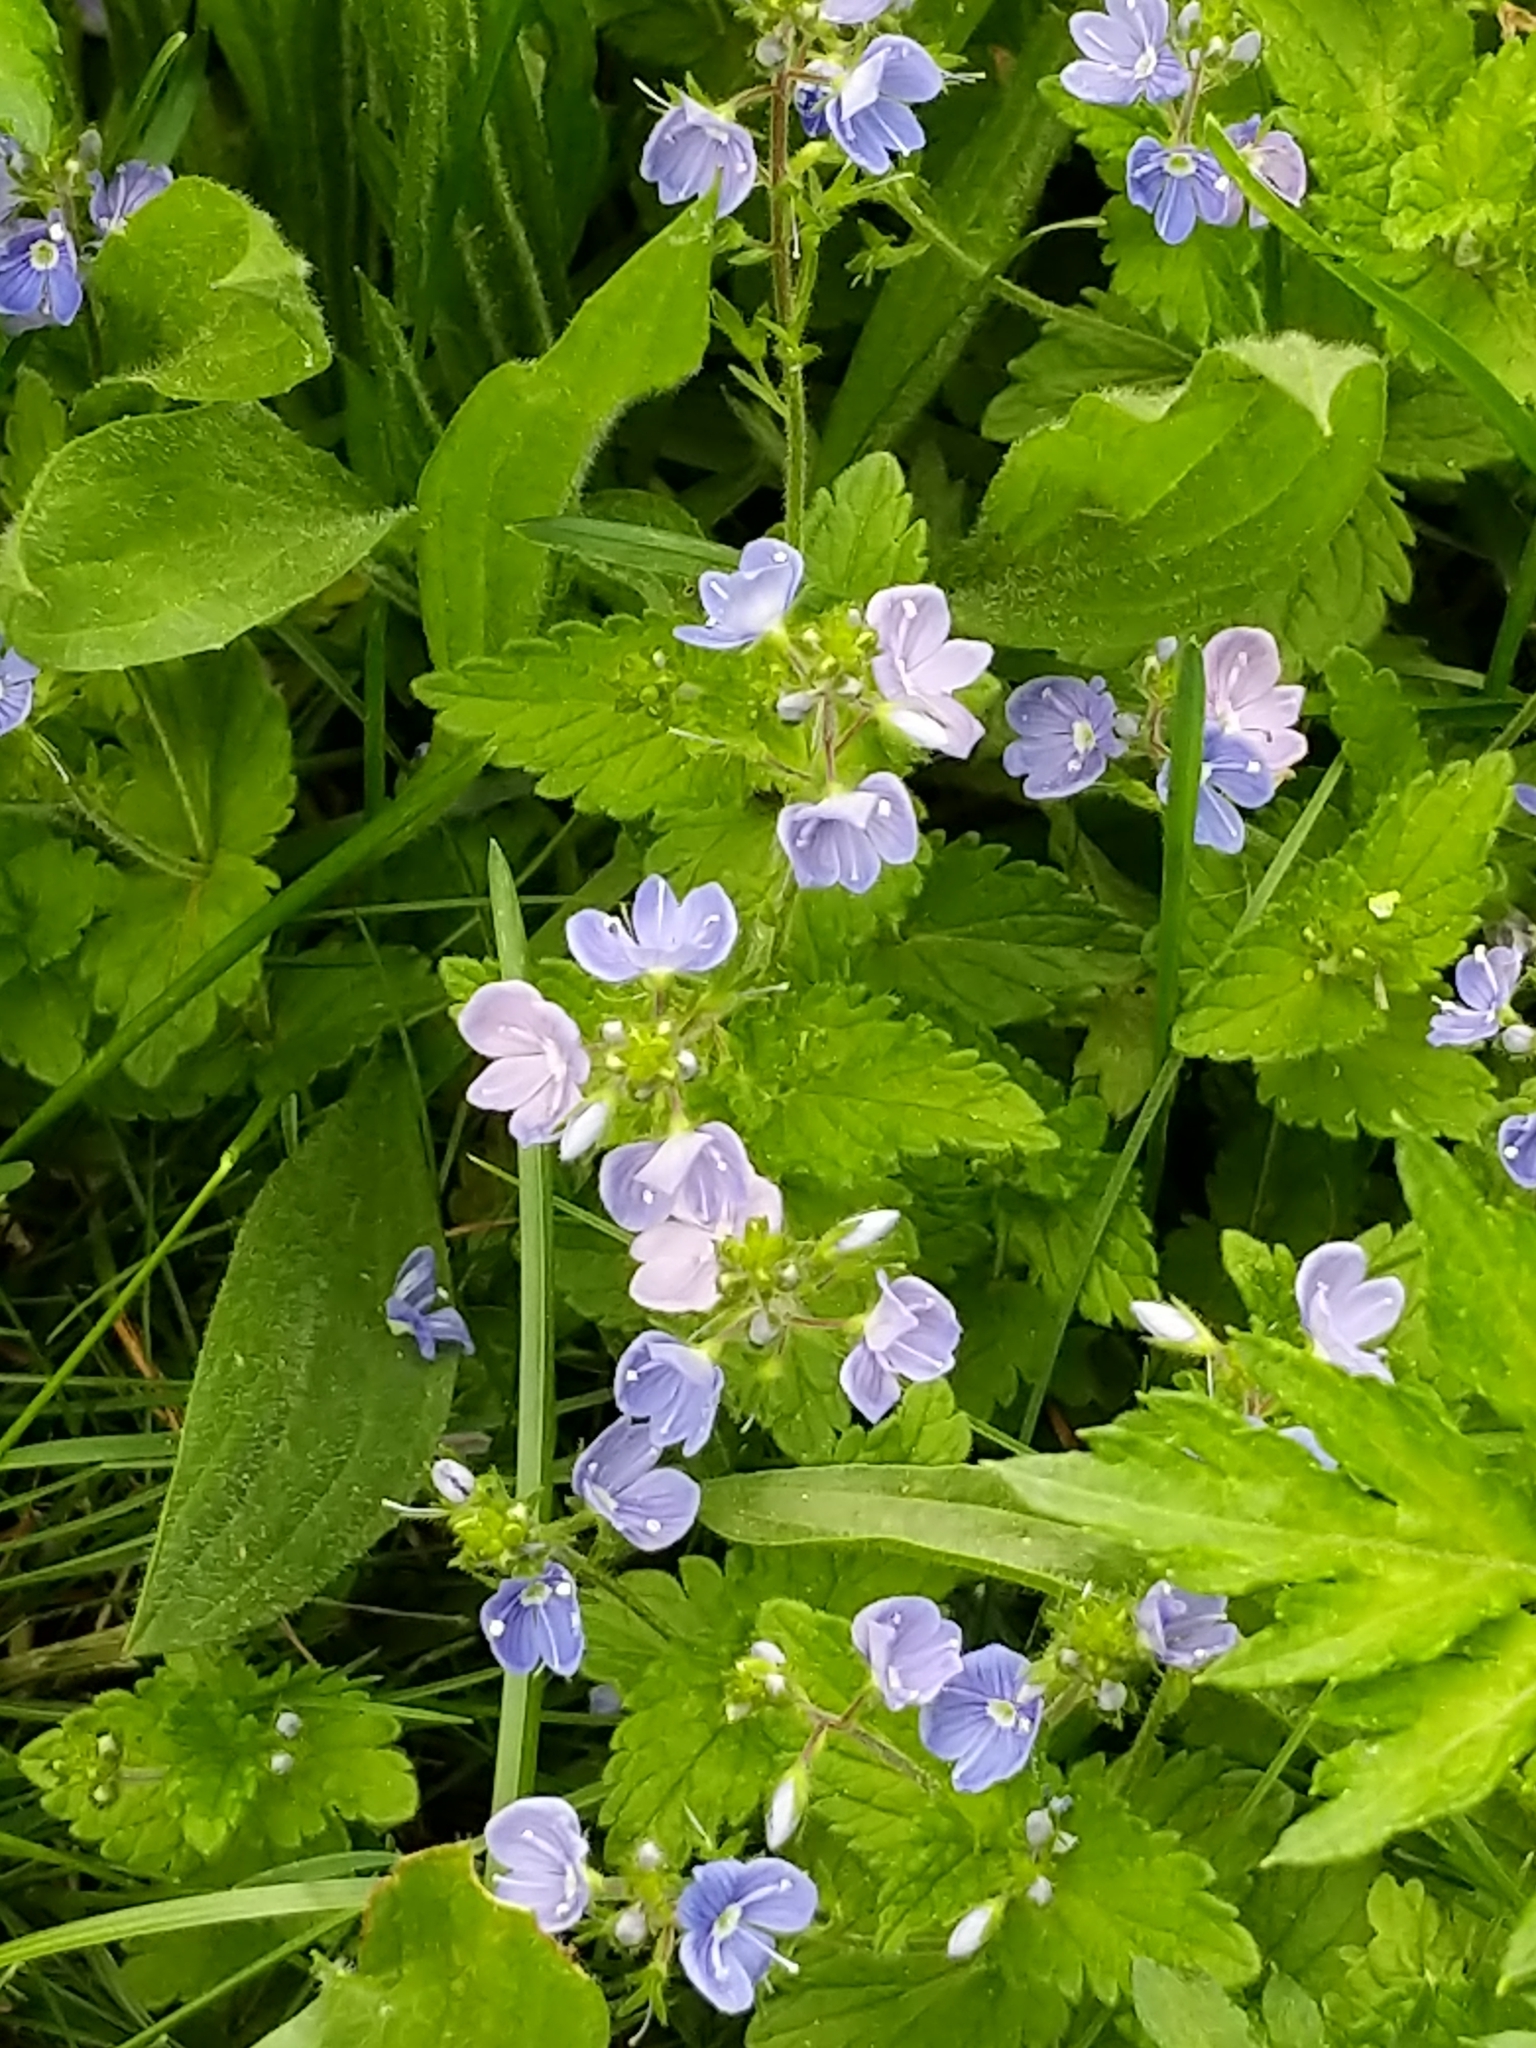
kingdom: Plantae
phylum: Tracheophyta
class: Magnoliopsida
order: Lamiales
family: Plantaginaceae
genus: Veronica
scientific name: Veronica chamaedrys
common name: Germander speedwell
